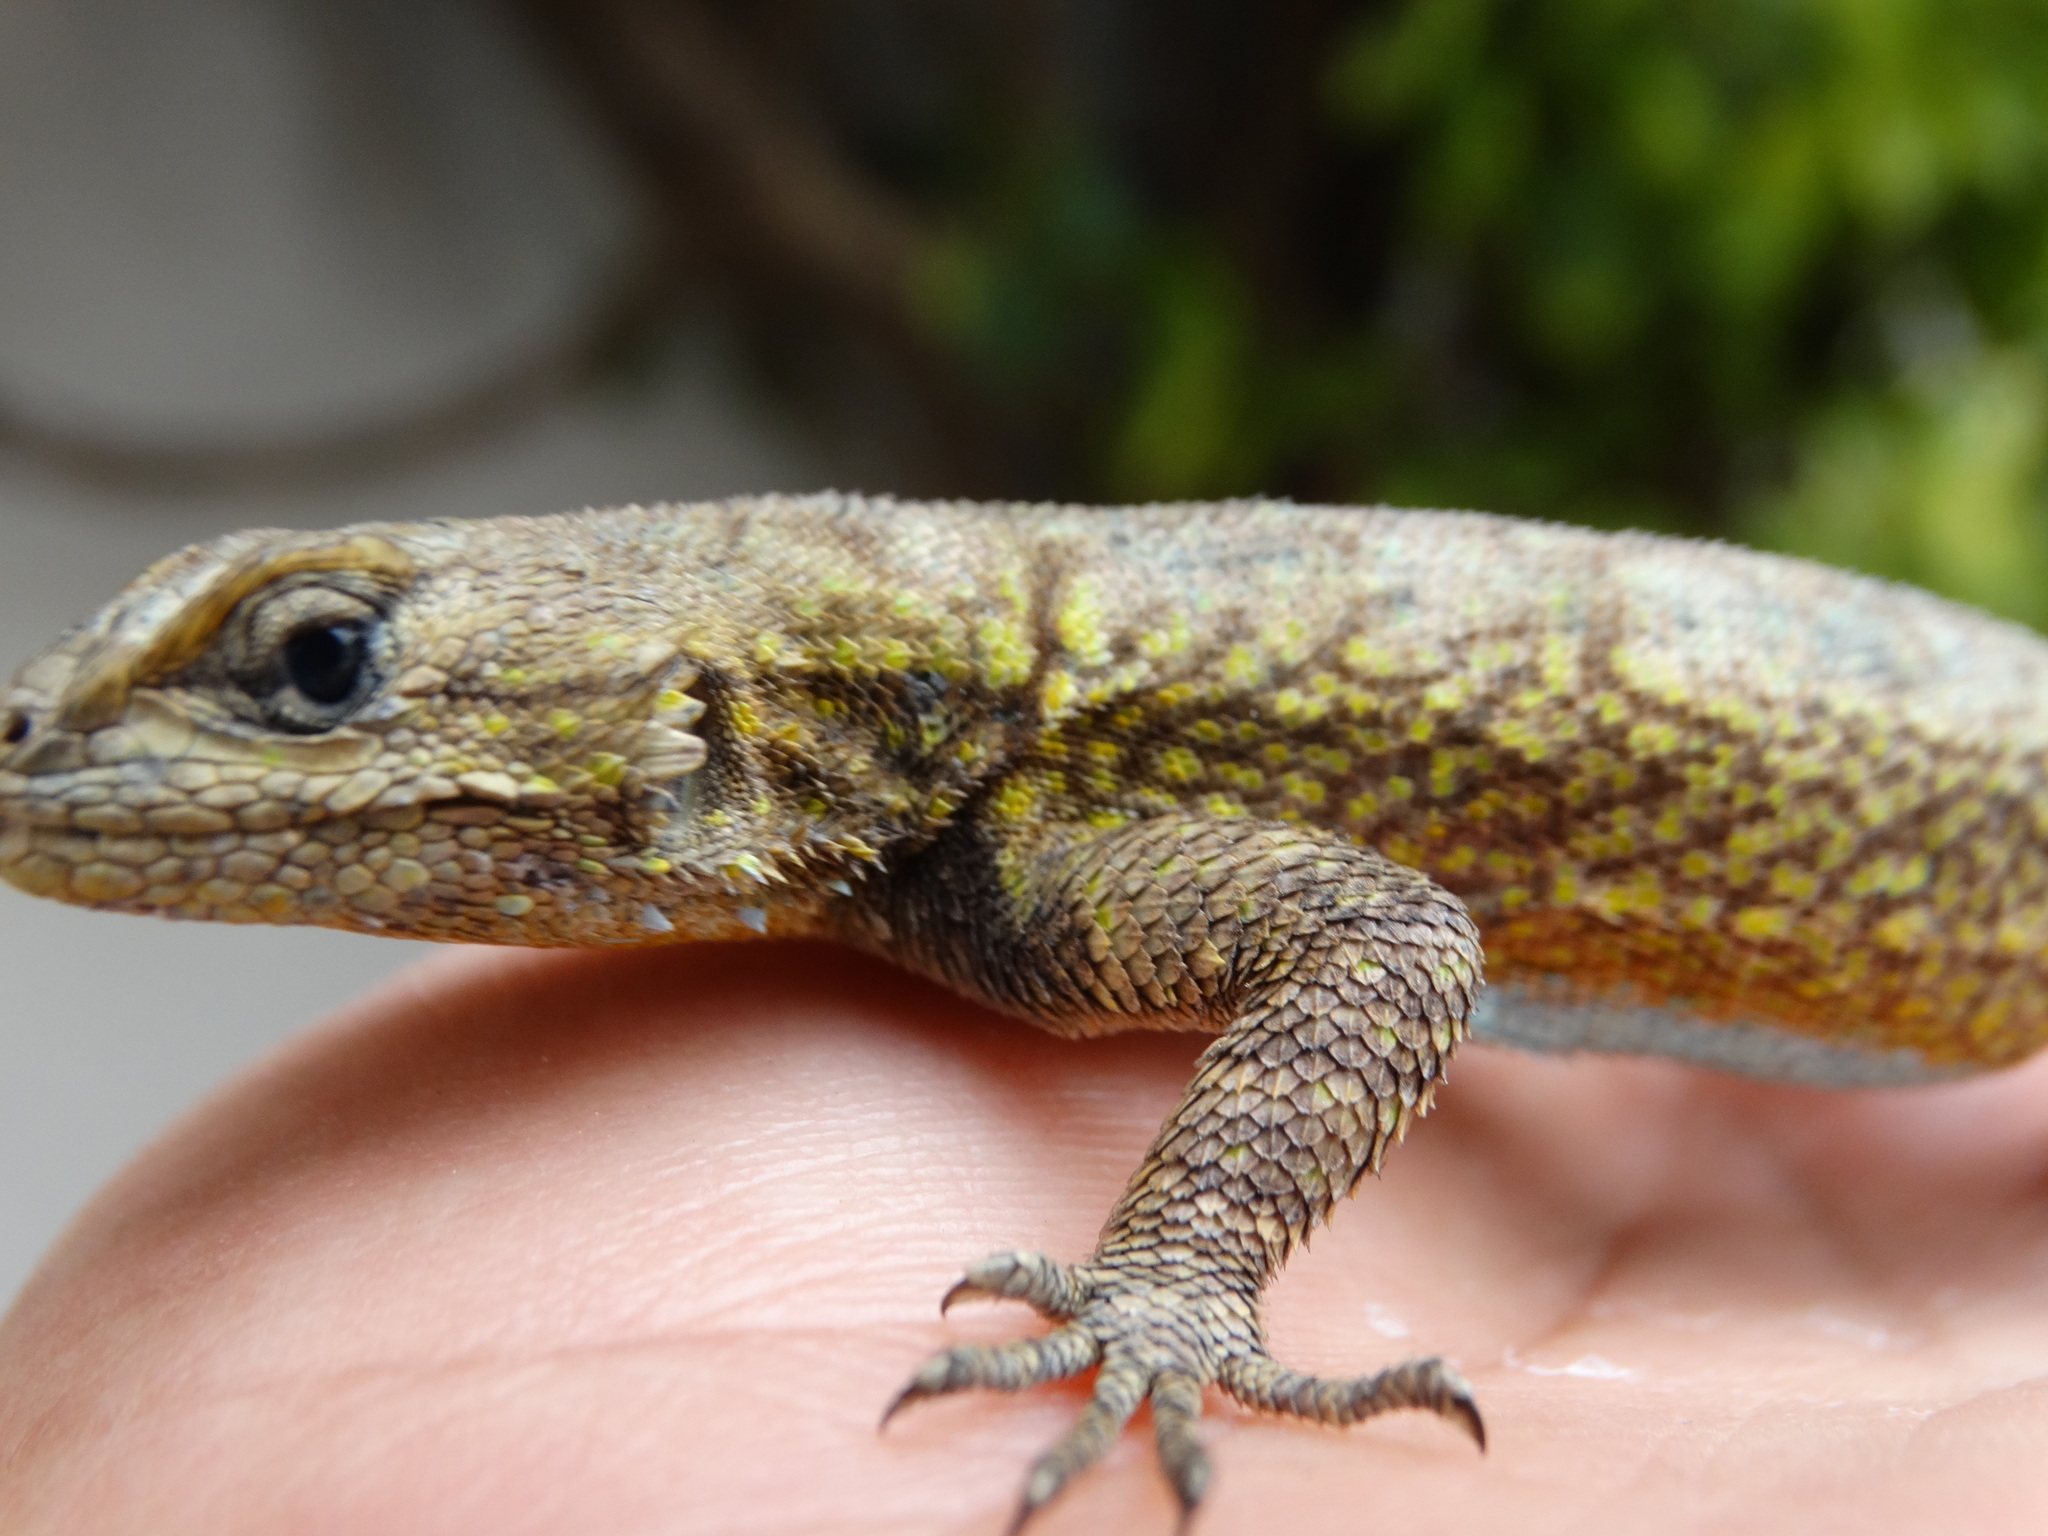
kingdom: Animalia
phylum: Chordata
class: Squamata
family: Phrynosomatidae
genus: Sceloporus
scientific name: Sceloporus grammicus
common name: Mesquite lizard
